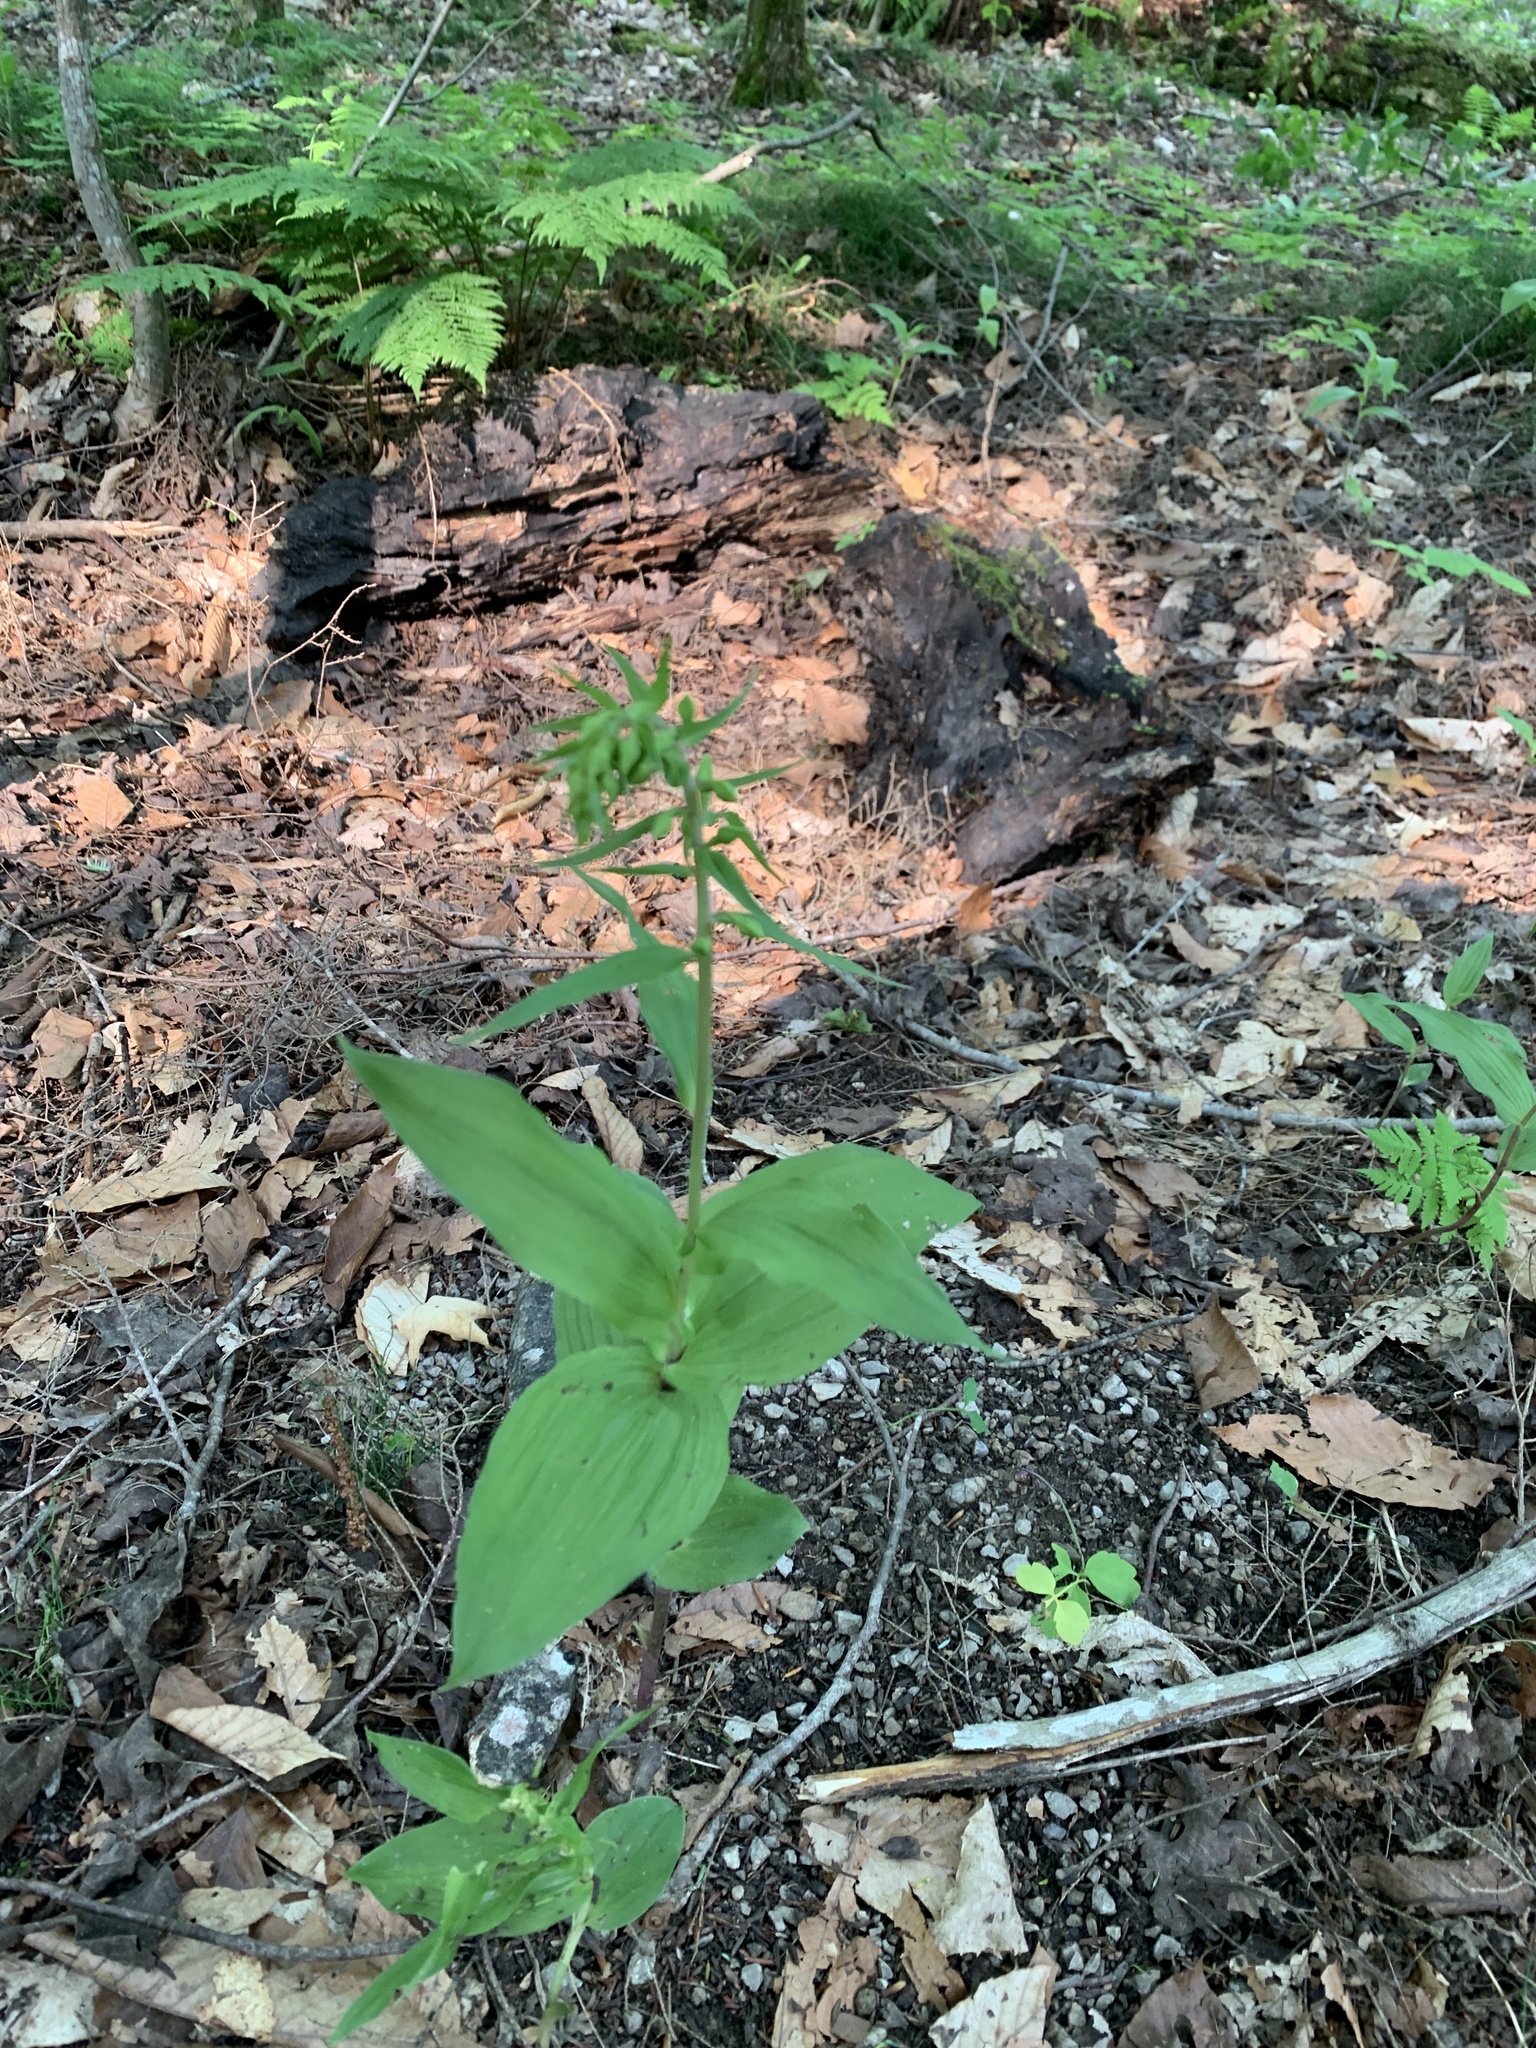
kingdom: Plantae
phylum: Tracheophyta
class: Liliopsida
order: Asparagales
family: Orchidaceae
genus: Epipactis
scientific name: Epipactis helleborine
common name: Broad-leaved helleborine
